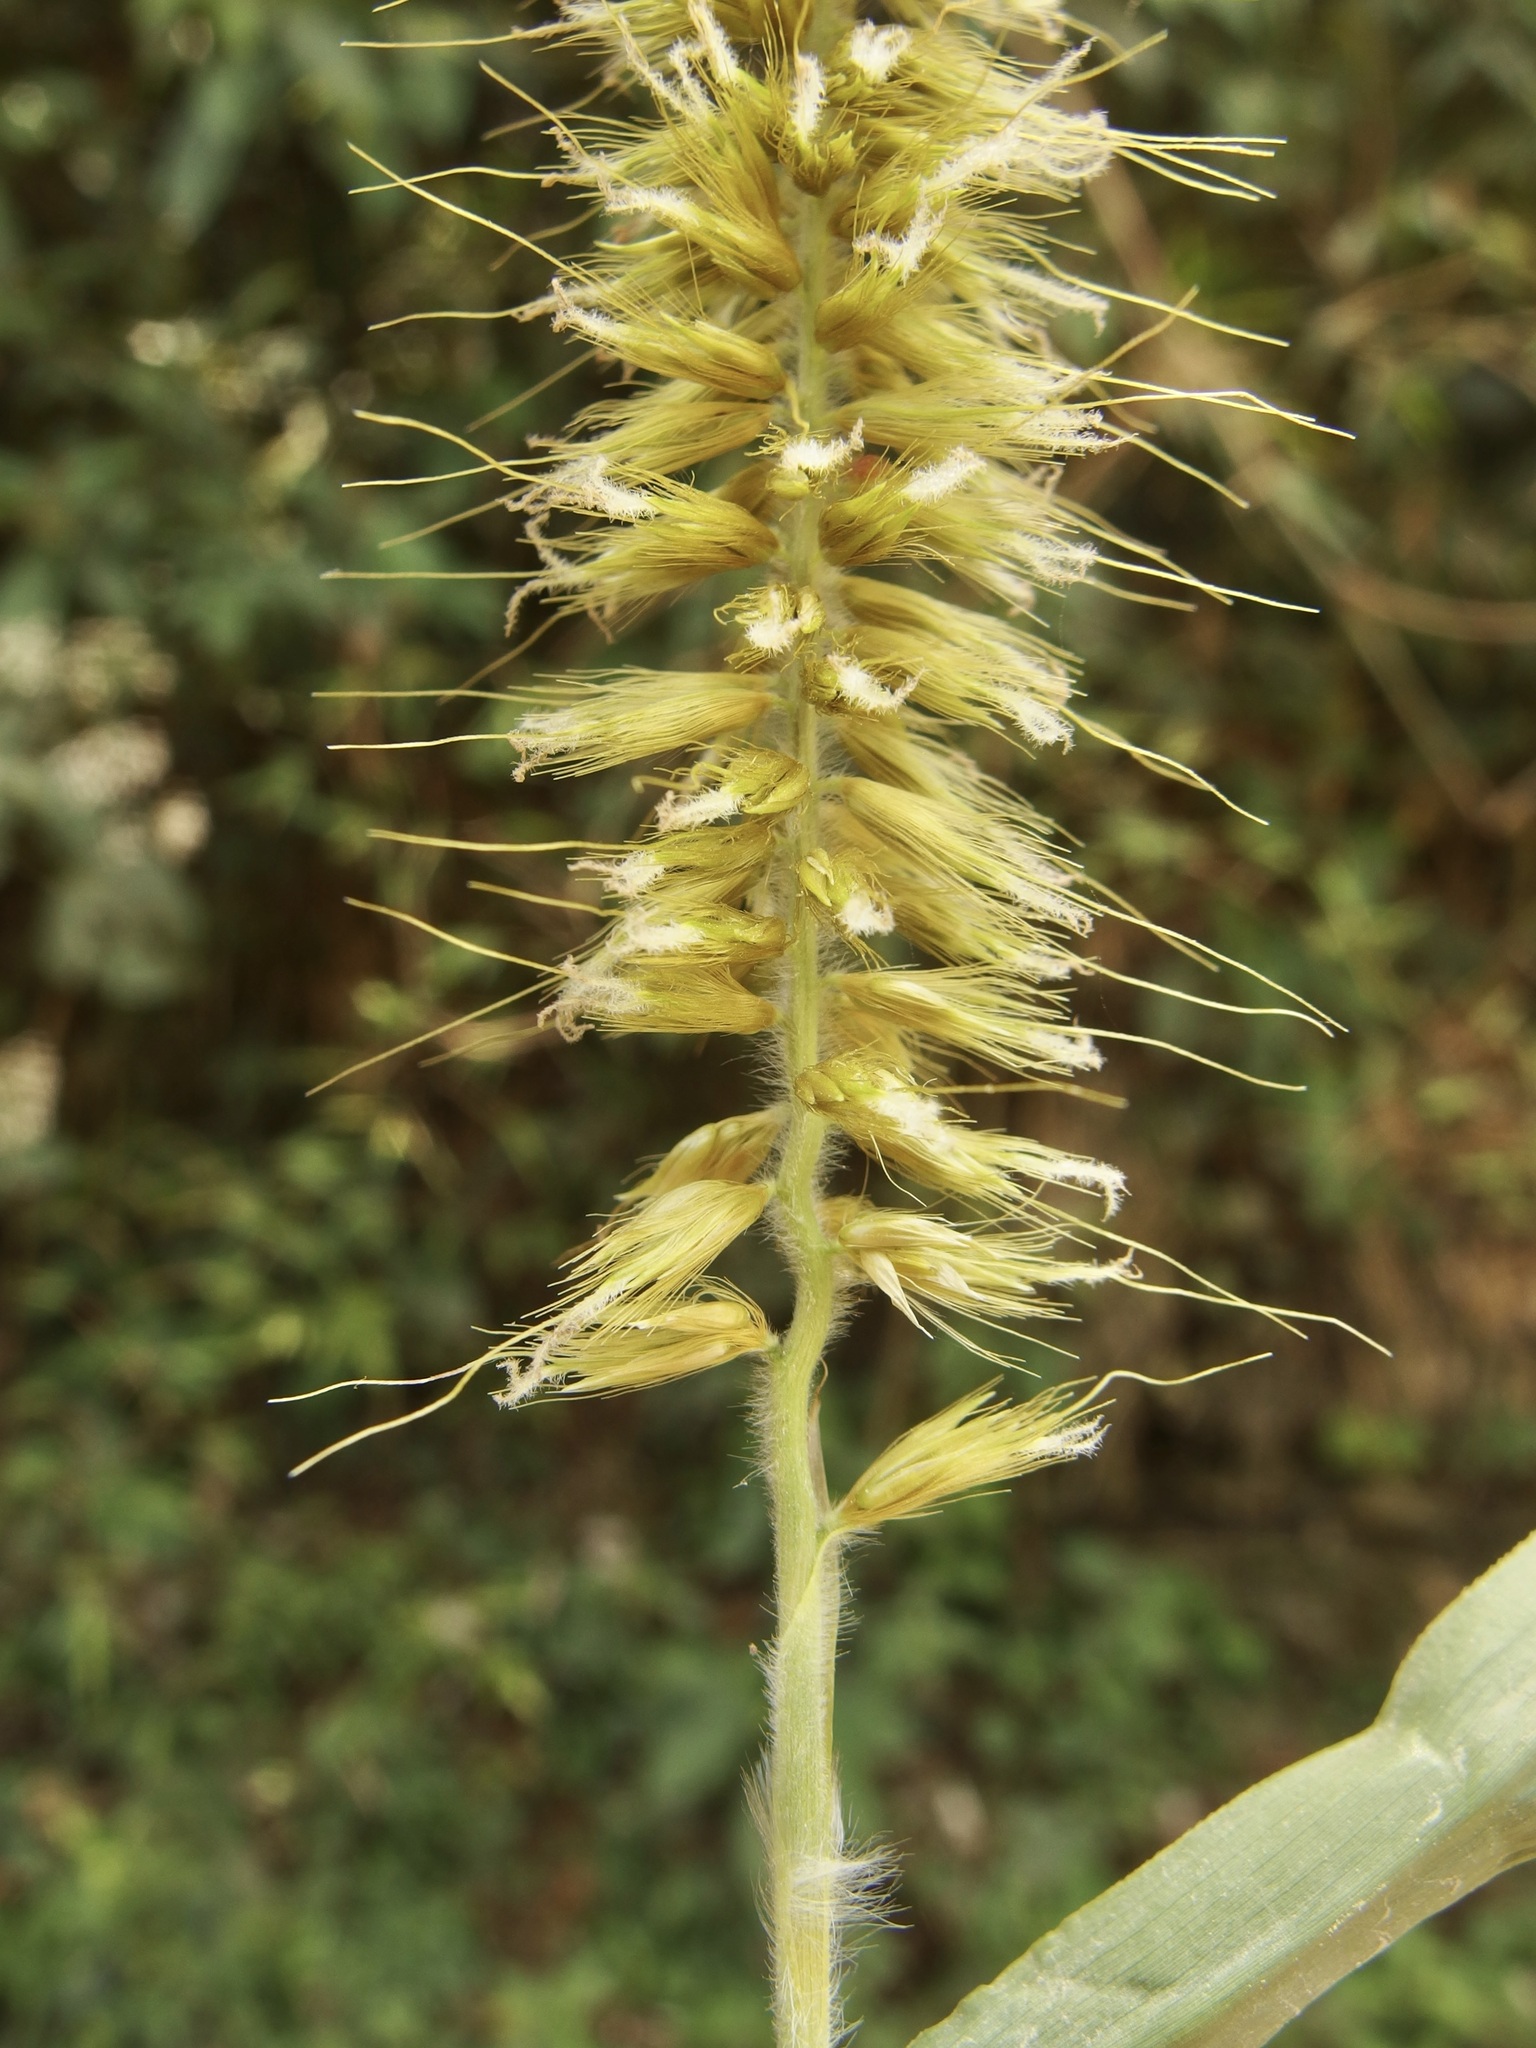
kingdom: Plantae
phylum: Tracheophyta
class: Liliopsida
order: Poales
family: Poaceae
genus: Cenchrus
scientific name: Cenchrus purpureus
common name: Elephant grass
